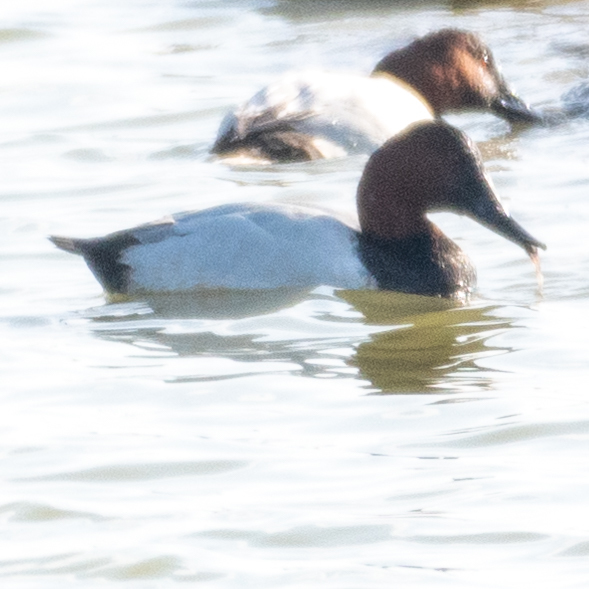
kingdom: Animalia
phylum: Chordata
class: Aves
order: Anseriformes
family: Anatidae
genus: Aythya
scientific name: Aythya valisineria
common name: Canvasback
